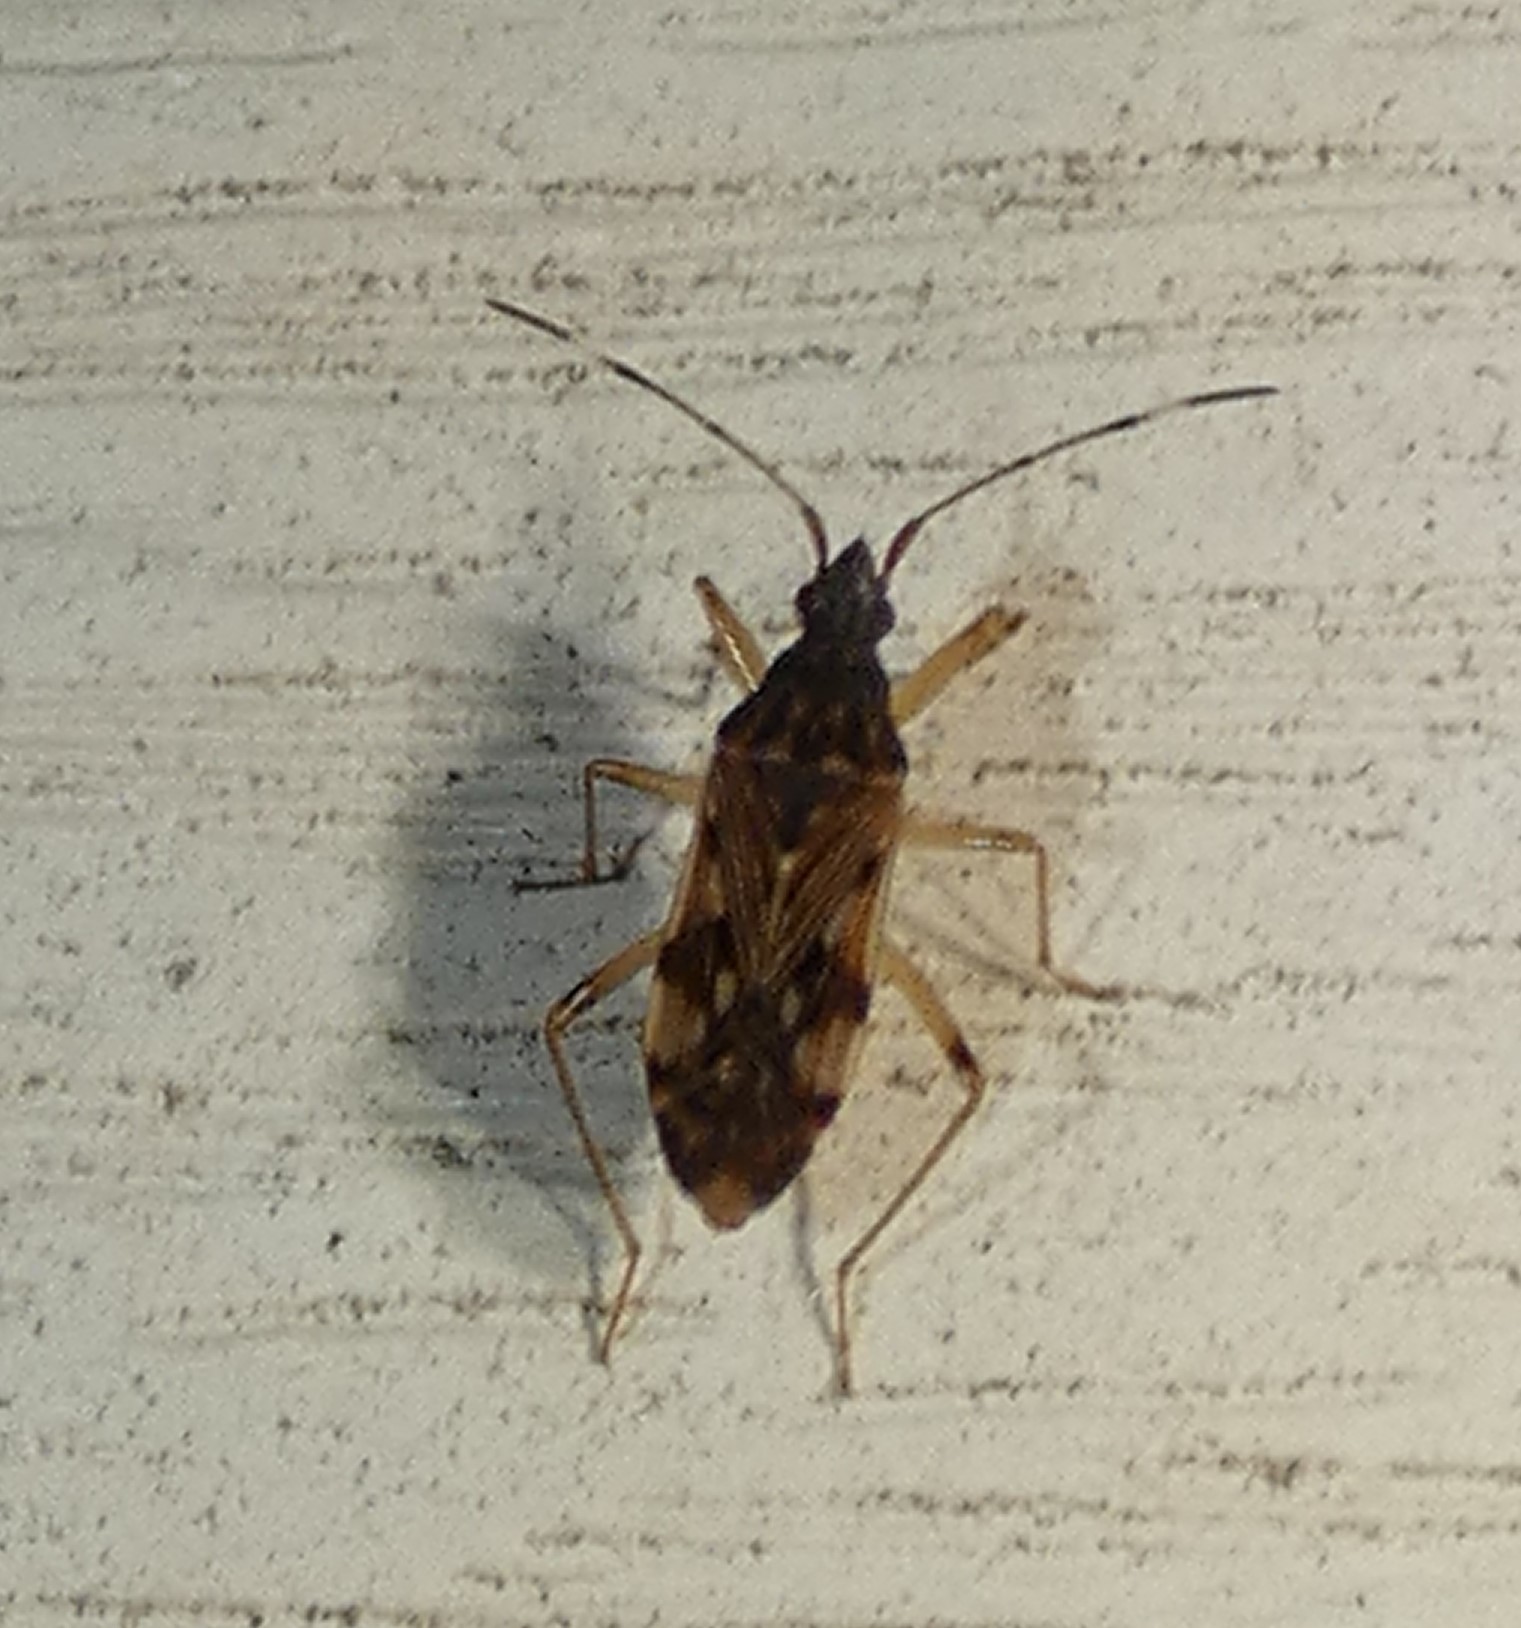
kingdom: Animalia
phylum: Arthropoda
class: Insecta
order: Hemiptera
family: Rhyparochromidae
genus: Ozophora
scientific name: Ozophora picturata
